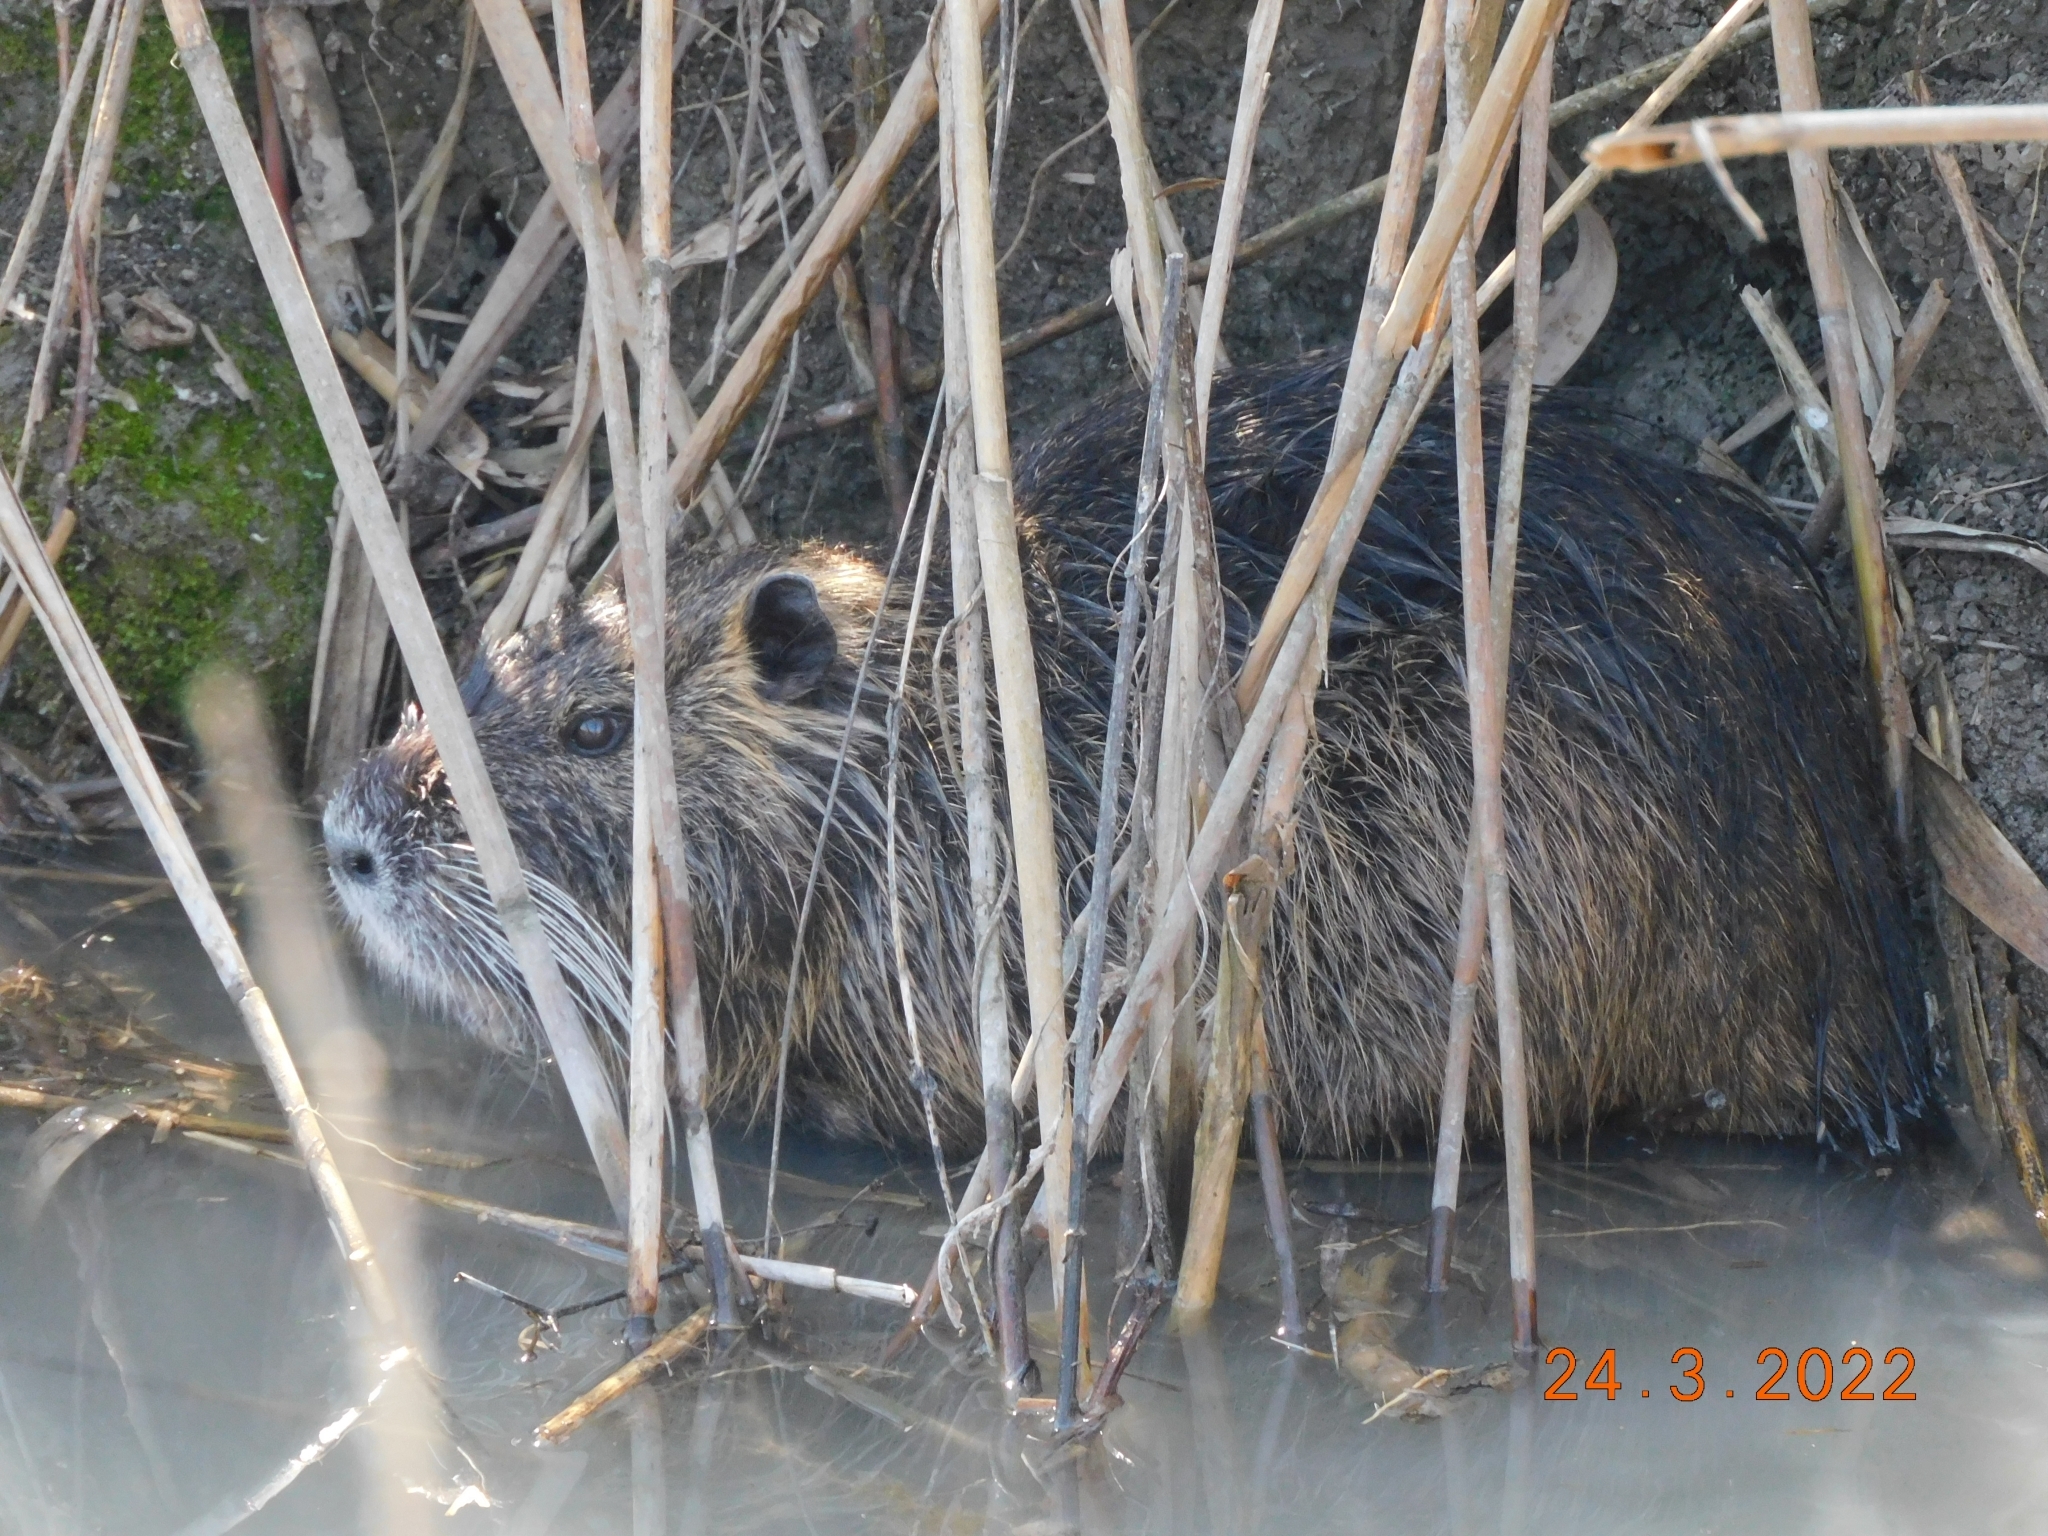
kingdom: Animalia
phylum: Chordata
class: Mammalia
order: Rodentia
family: Myocastoridae
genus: Myocastor
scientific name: Myocastor coypus
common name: Coypu
